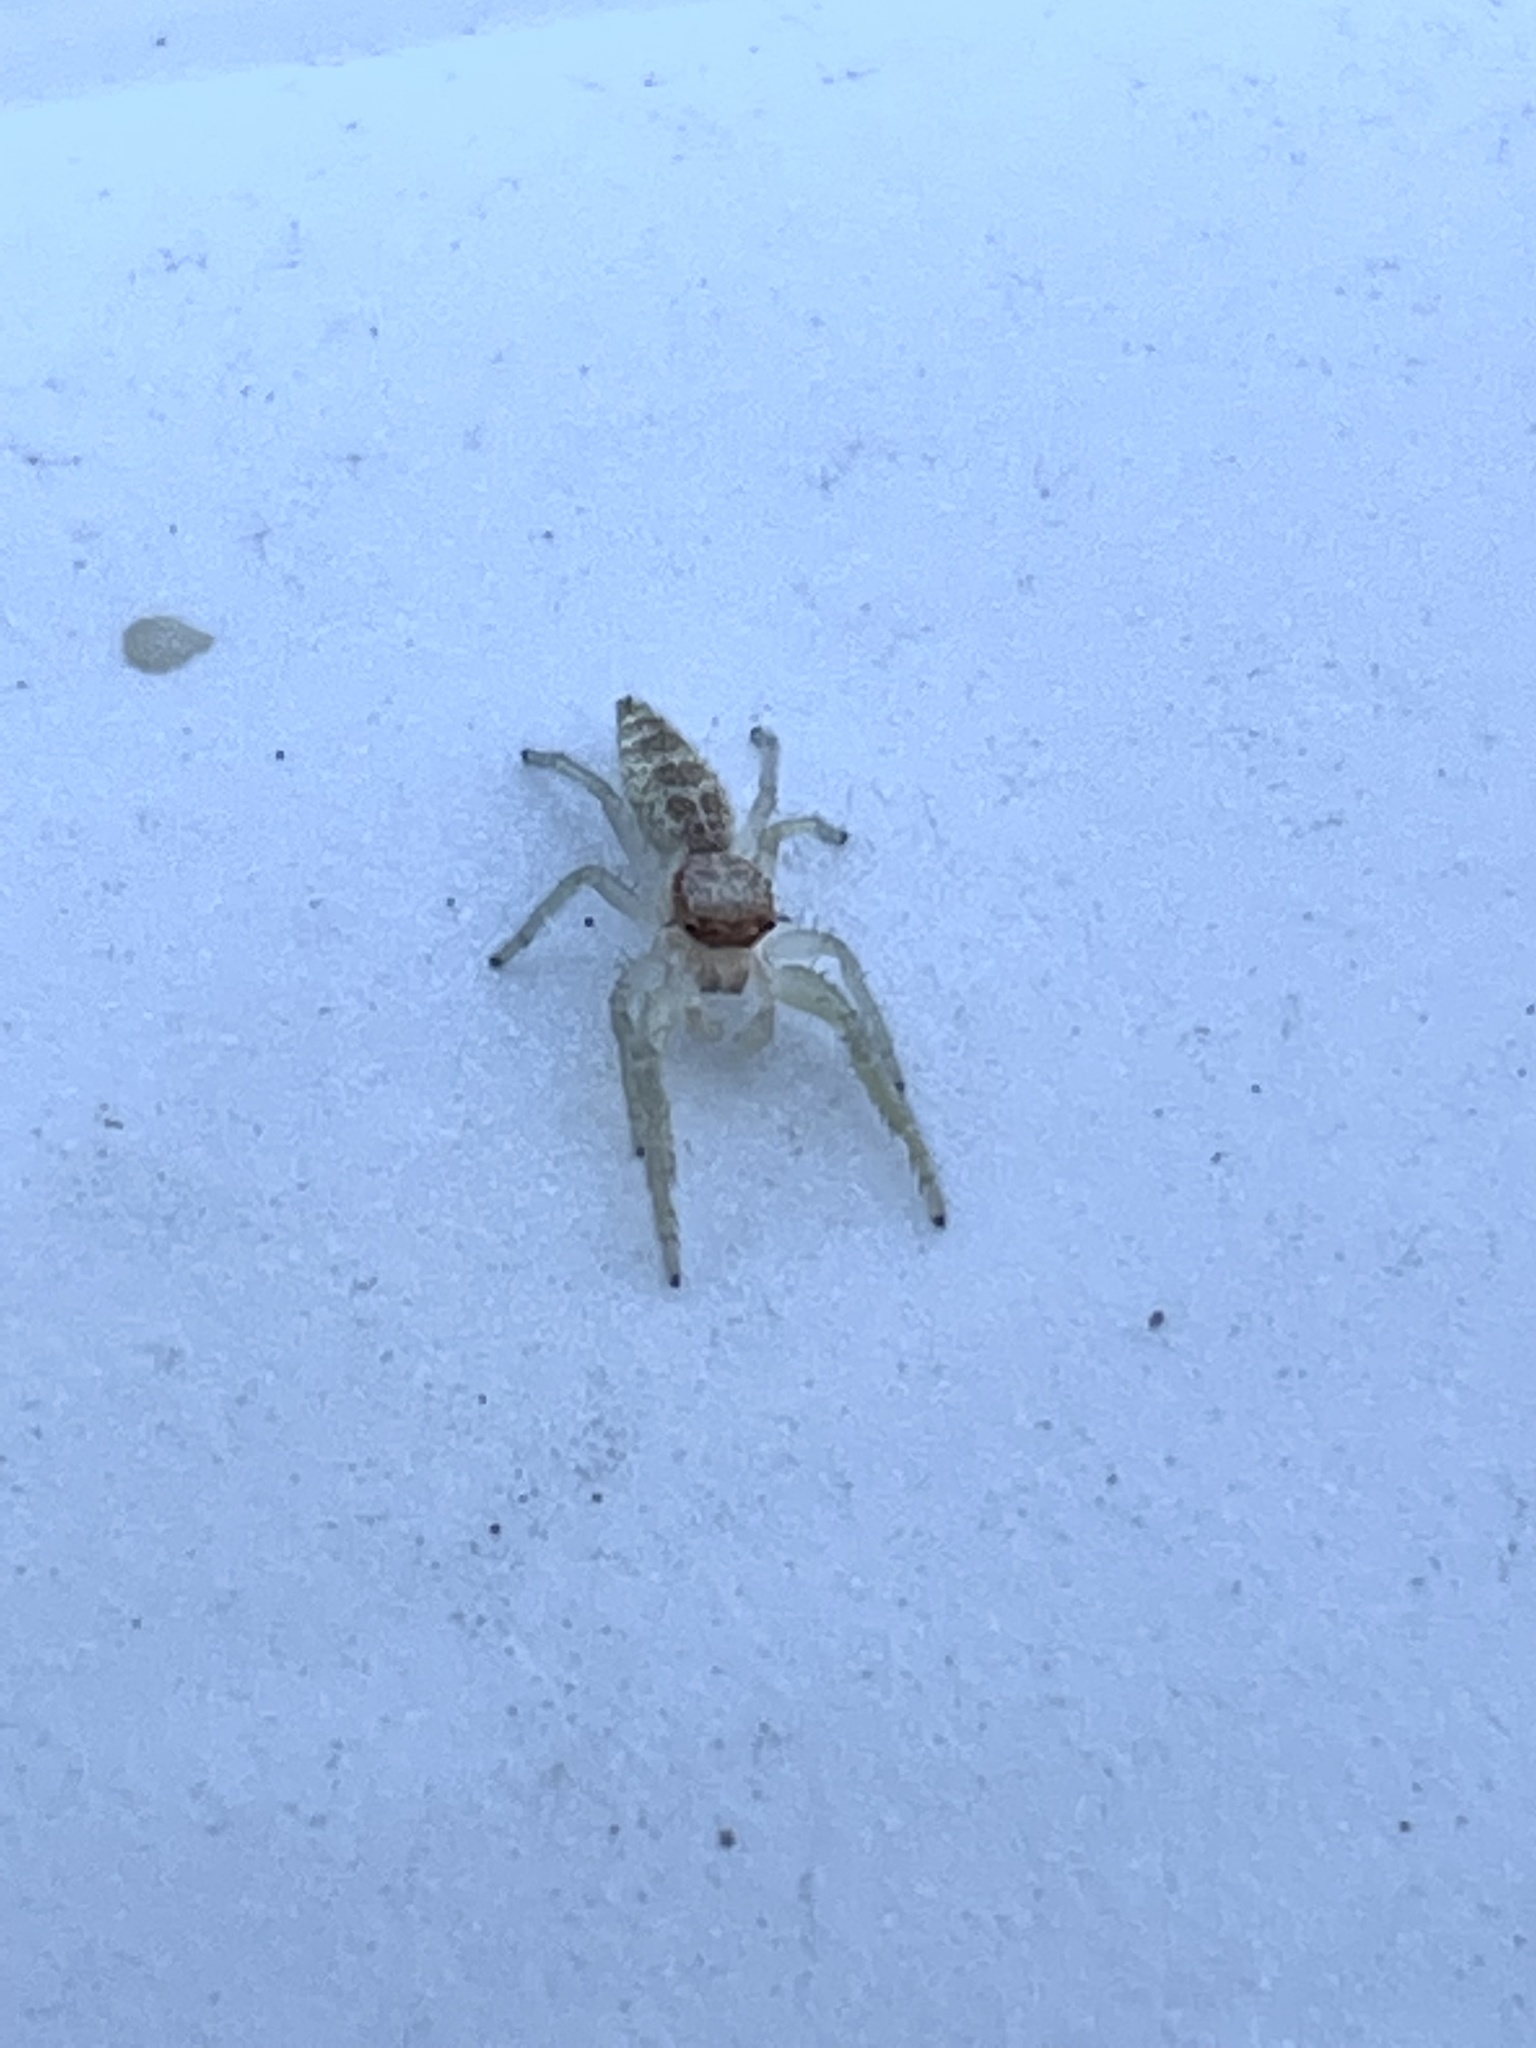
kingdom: Animalia
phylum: Arthropoda
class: Arachnida
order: Araneae
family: Salticidae
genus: Hentzia
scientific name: Hentzia mitrata
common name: White-jawed jumping spider
